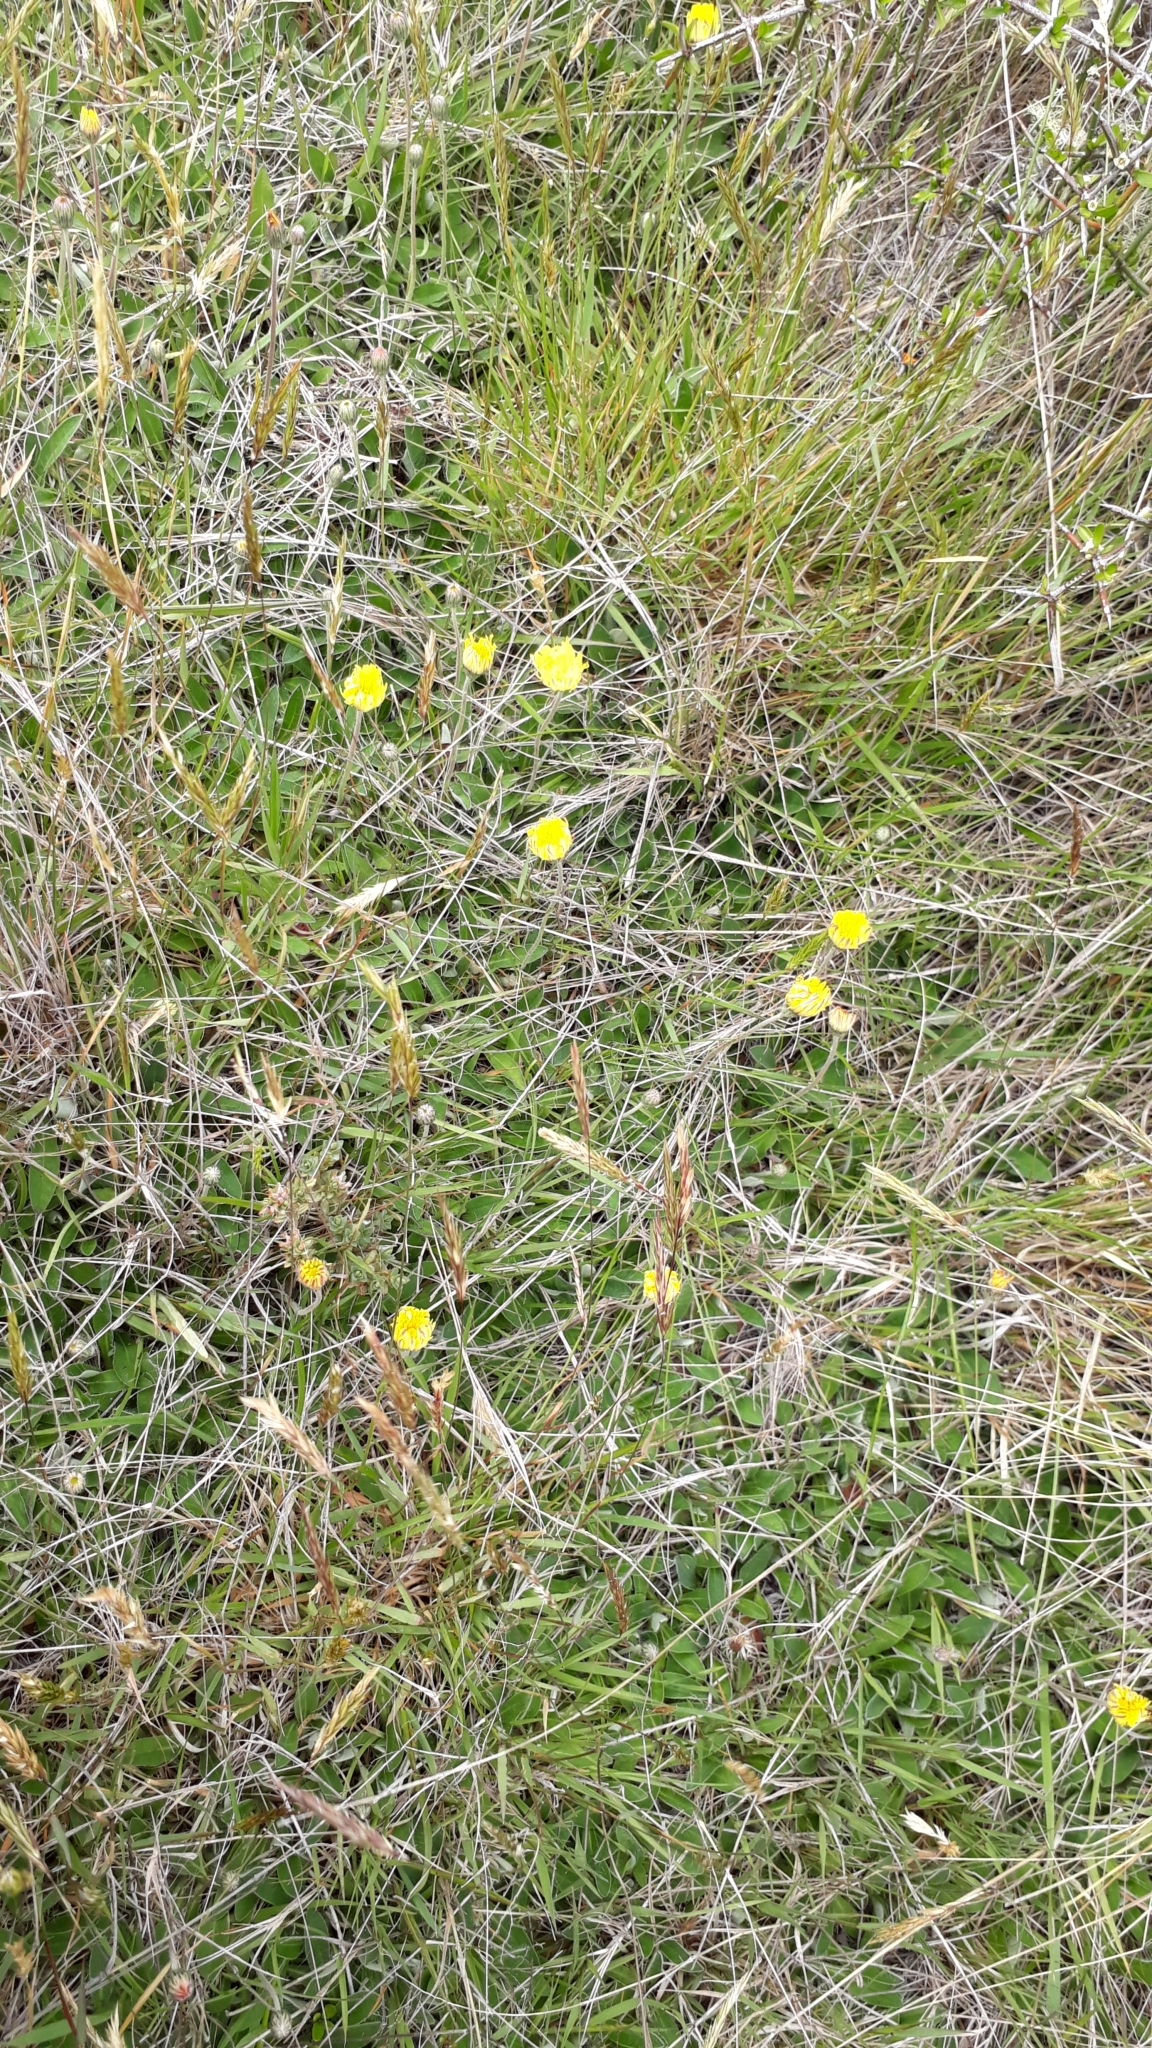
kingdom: Plantae
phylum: Tracheophyta
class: Magnoliopsida
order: Asterales
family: Asteraceae
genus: Pilosella
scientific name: Pilosella officinarum
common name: Mouse-ear hawkweed
